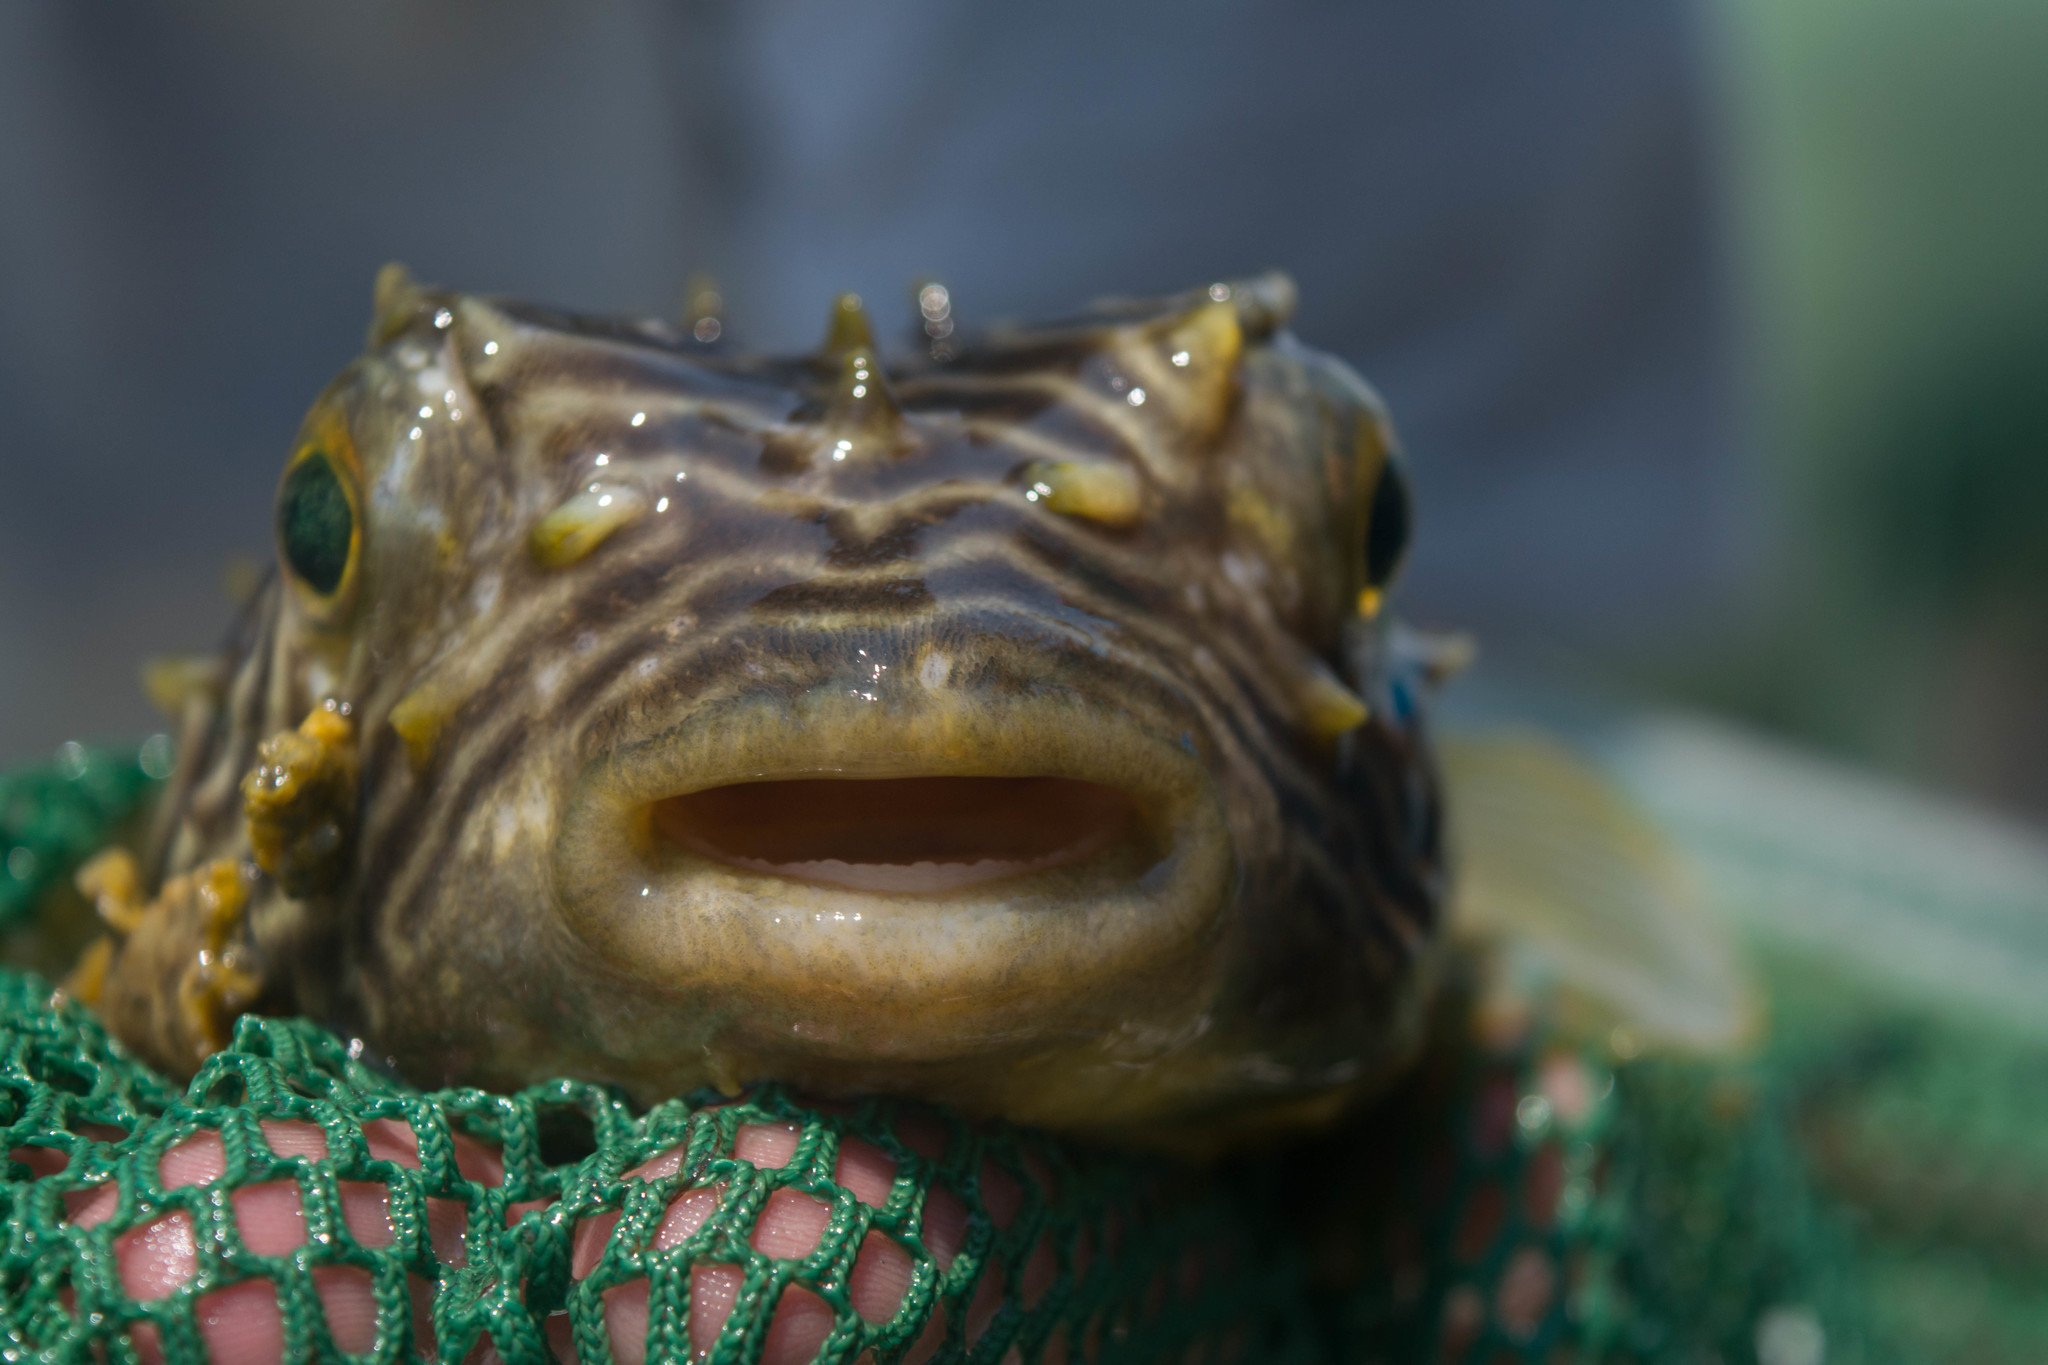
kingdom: Animalia
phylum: Chordata
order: Tetraodontiformes
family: Diodontidae
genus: Chilomycterus
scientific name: Chilomycterus schoepfii
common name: Striped burrfish
